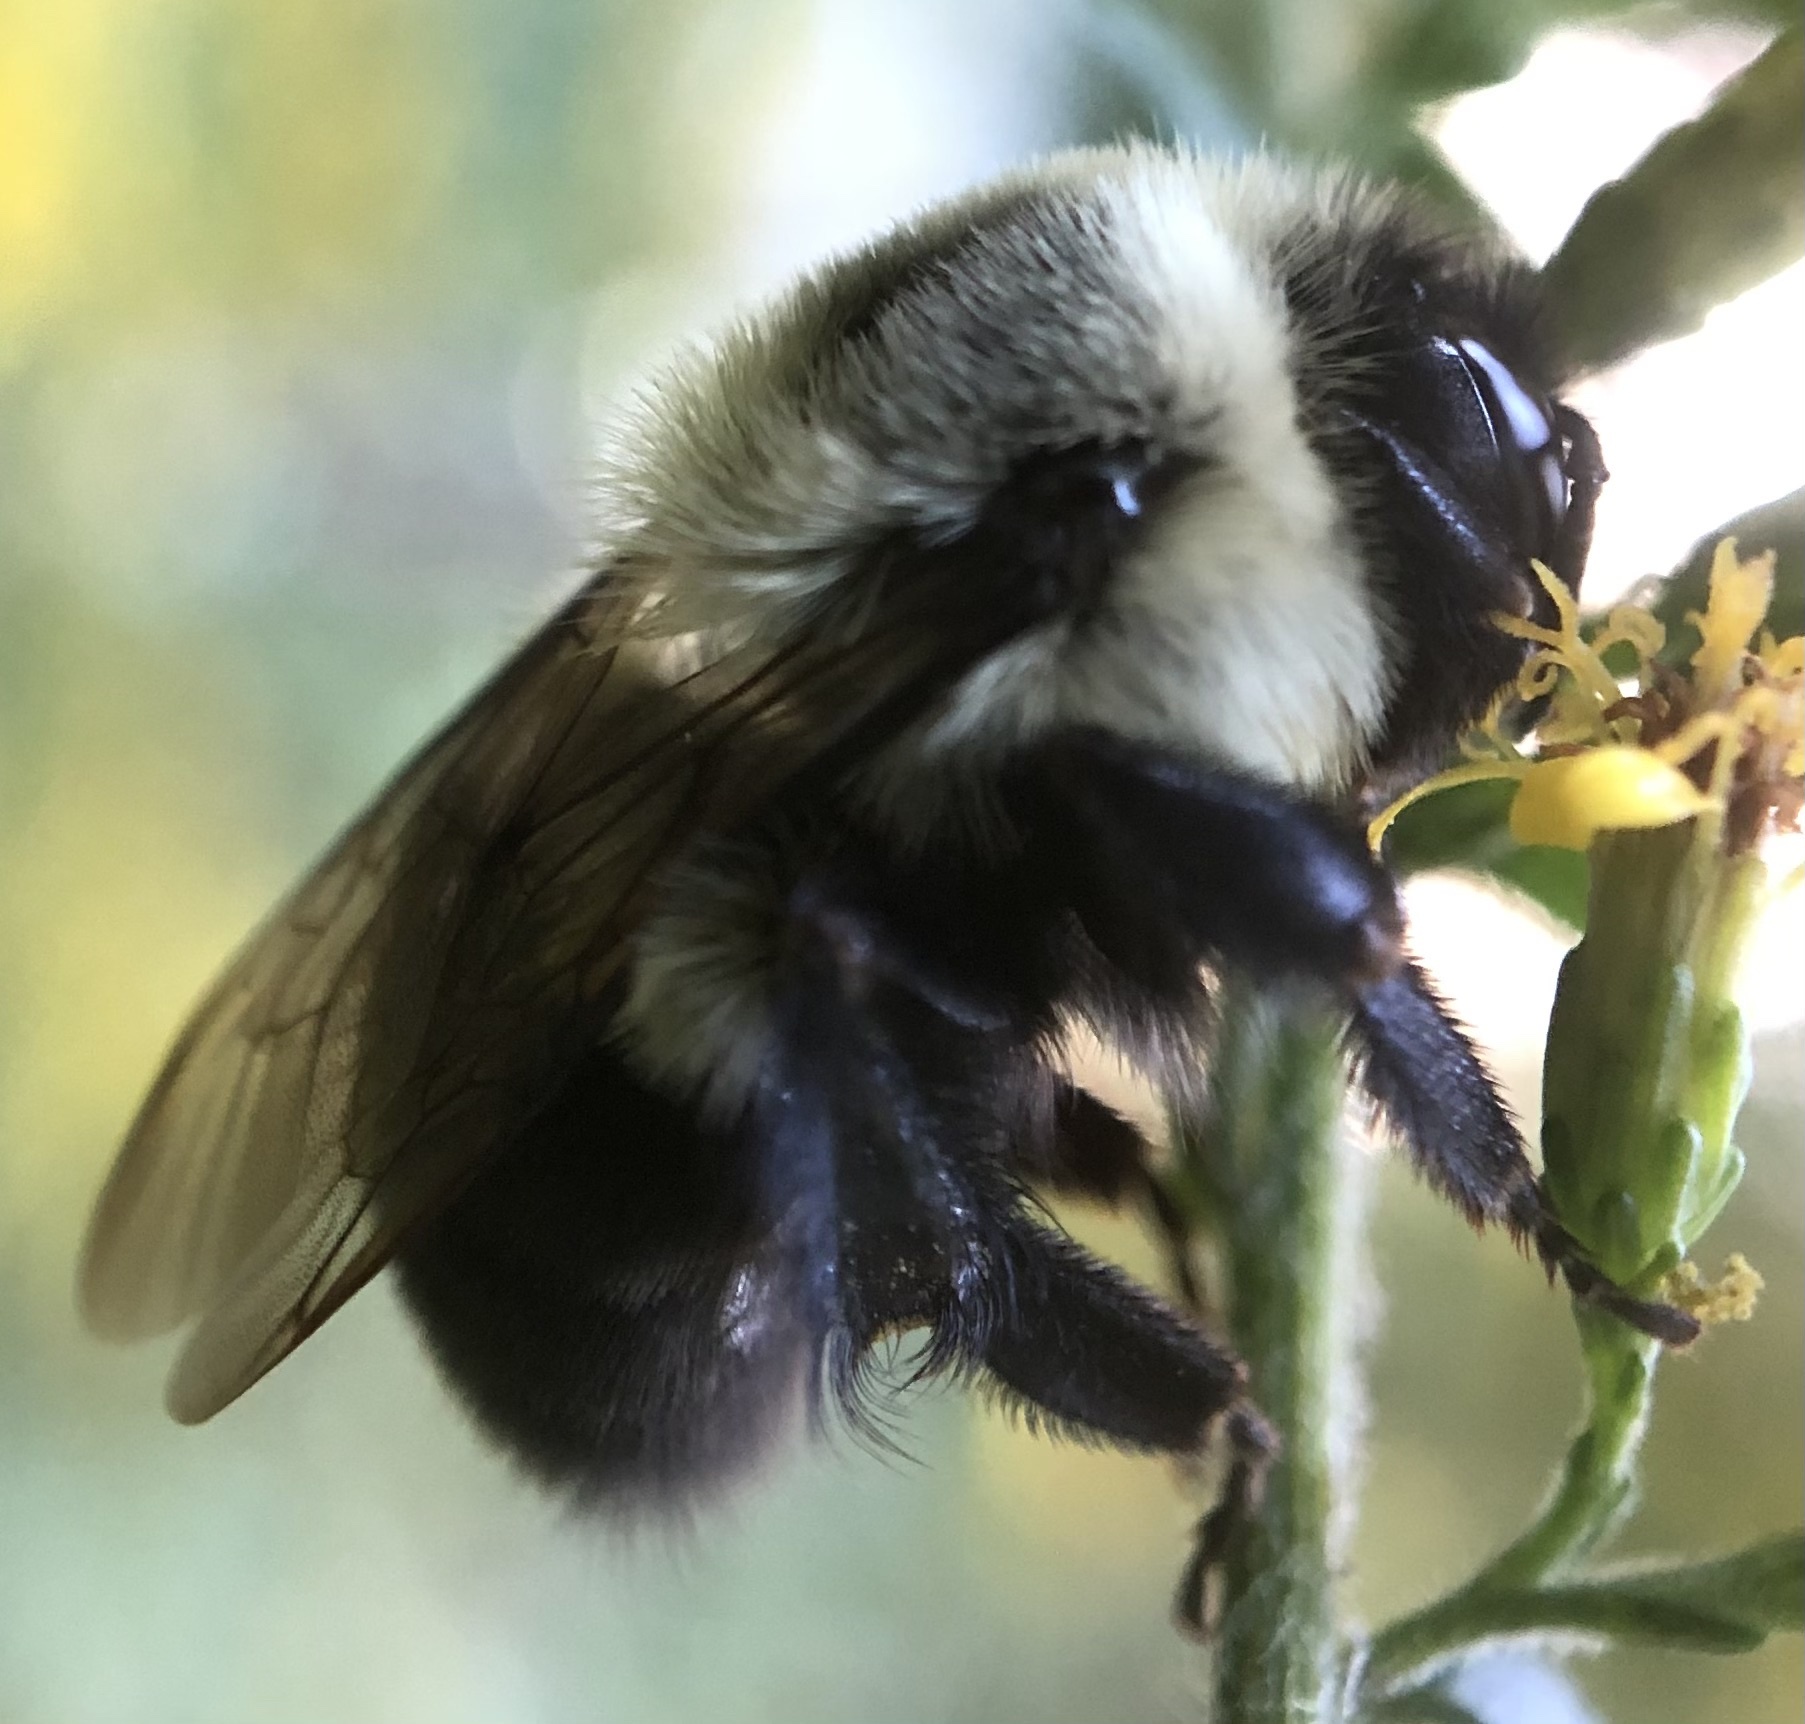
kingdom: Animalia
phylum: Arthropoda
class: Insecta
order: Hymenoptera
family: Apidae
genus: Bombus
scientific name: Bombus impatiens
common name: Common eastern bumble bee
